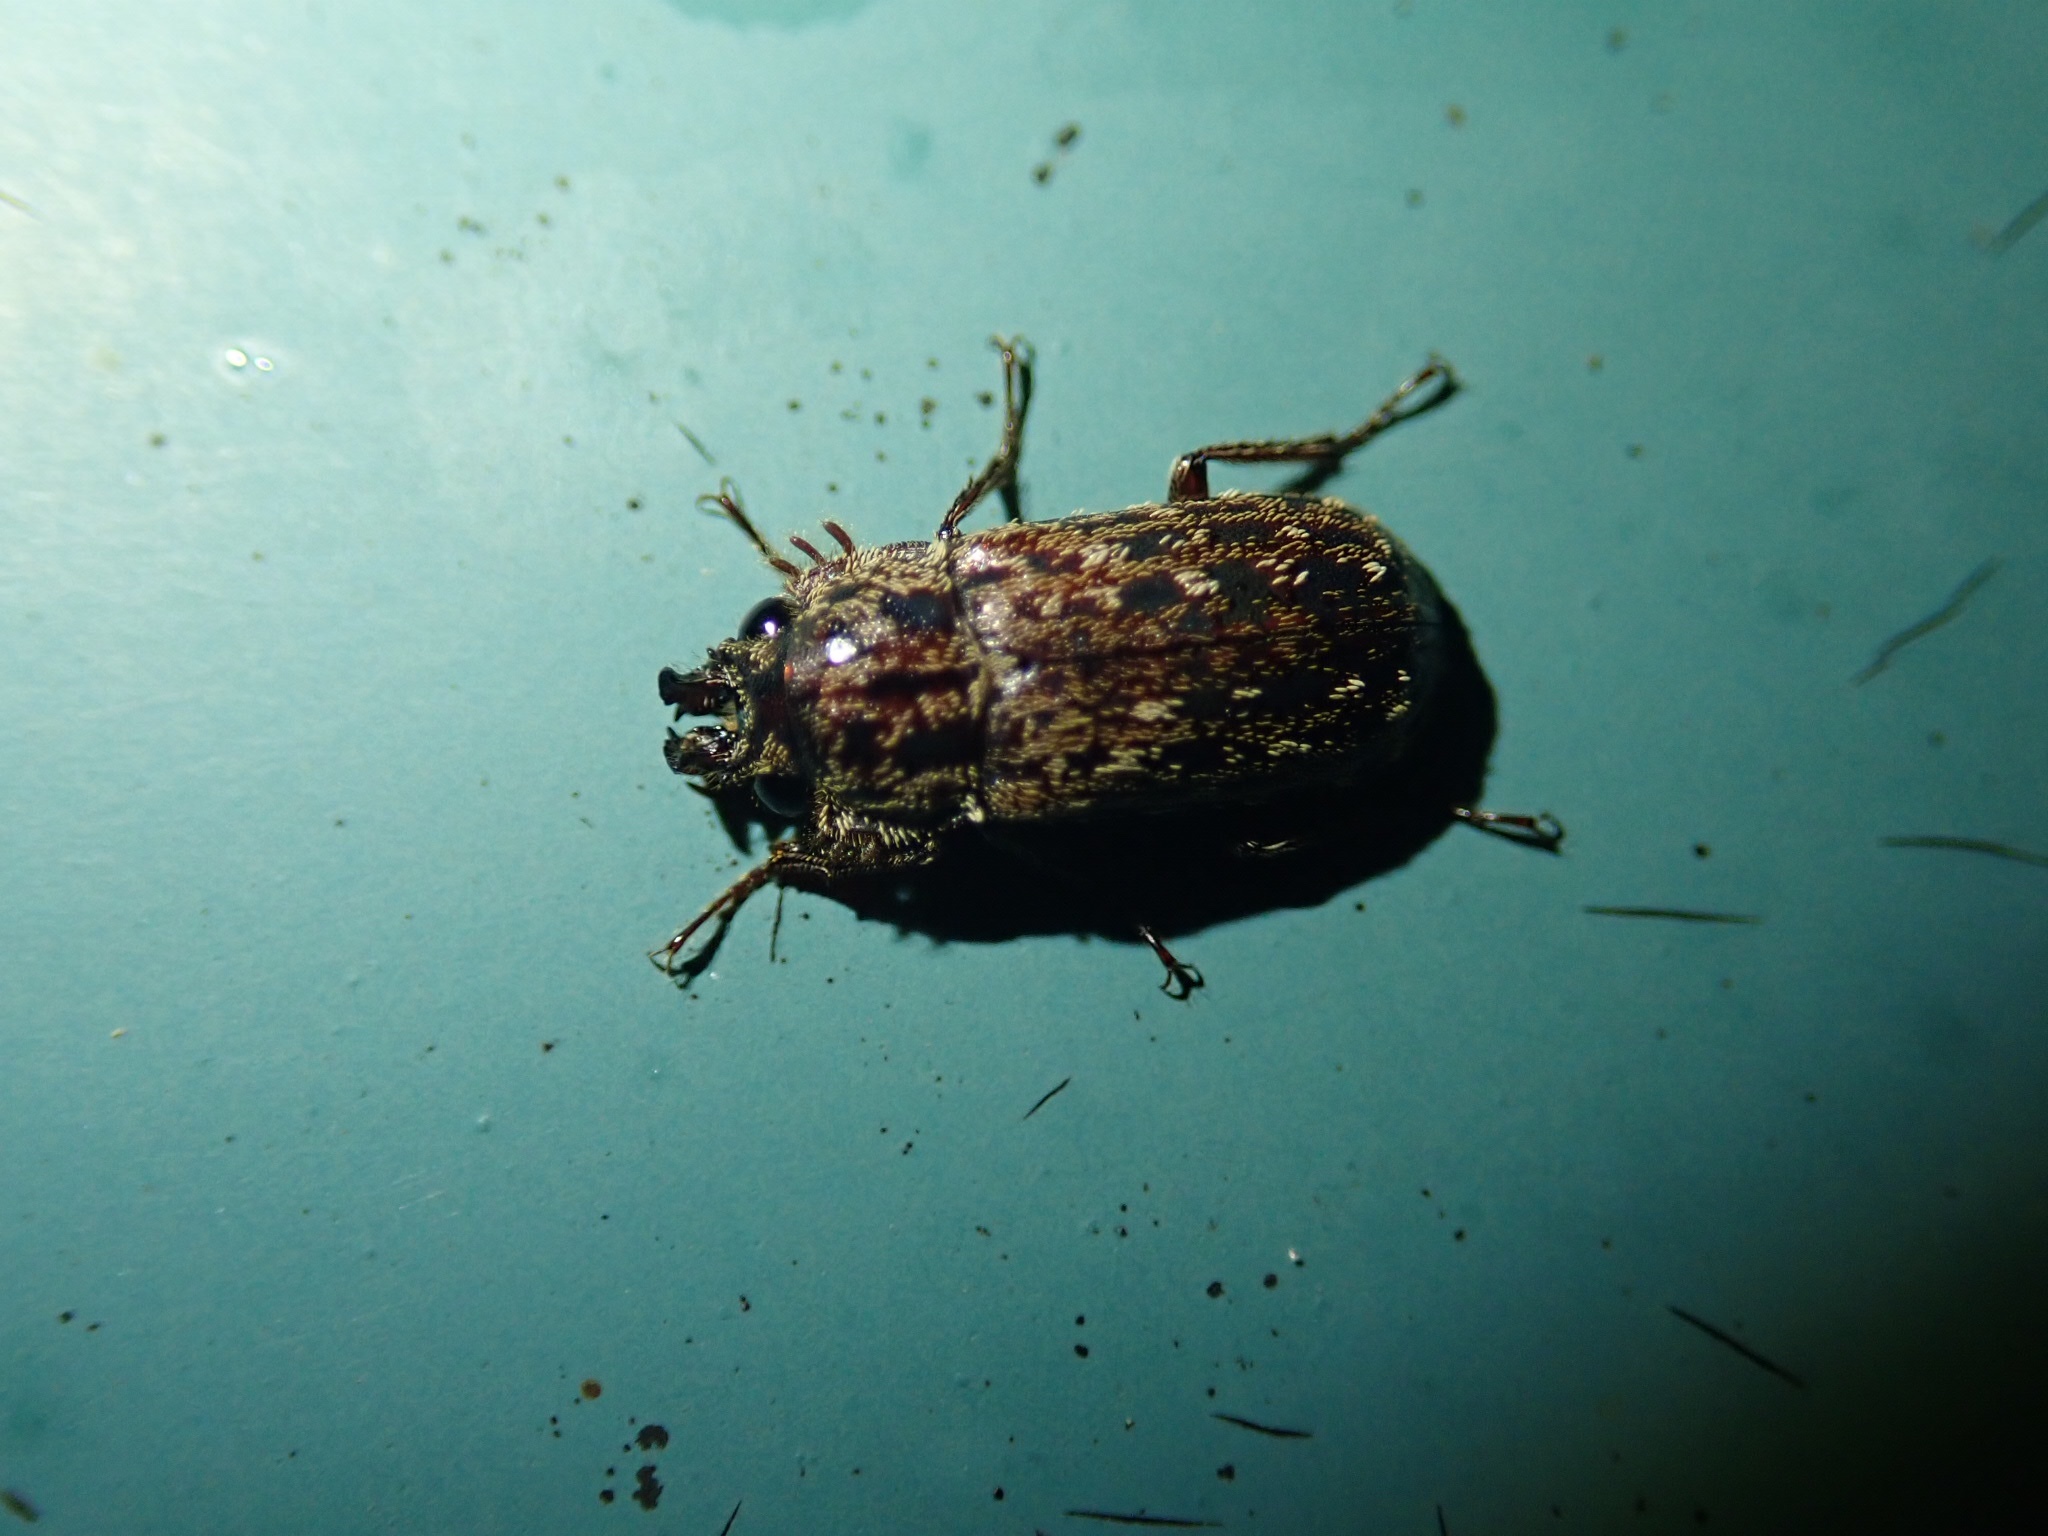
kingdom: Animalia
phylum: Arthropoda
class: Insecta
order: Coleoptera
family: Lucanidae
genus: Mitophyllus
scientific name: Mitophyllus irroratus
